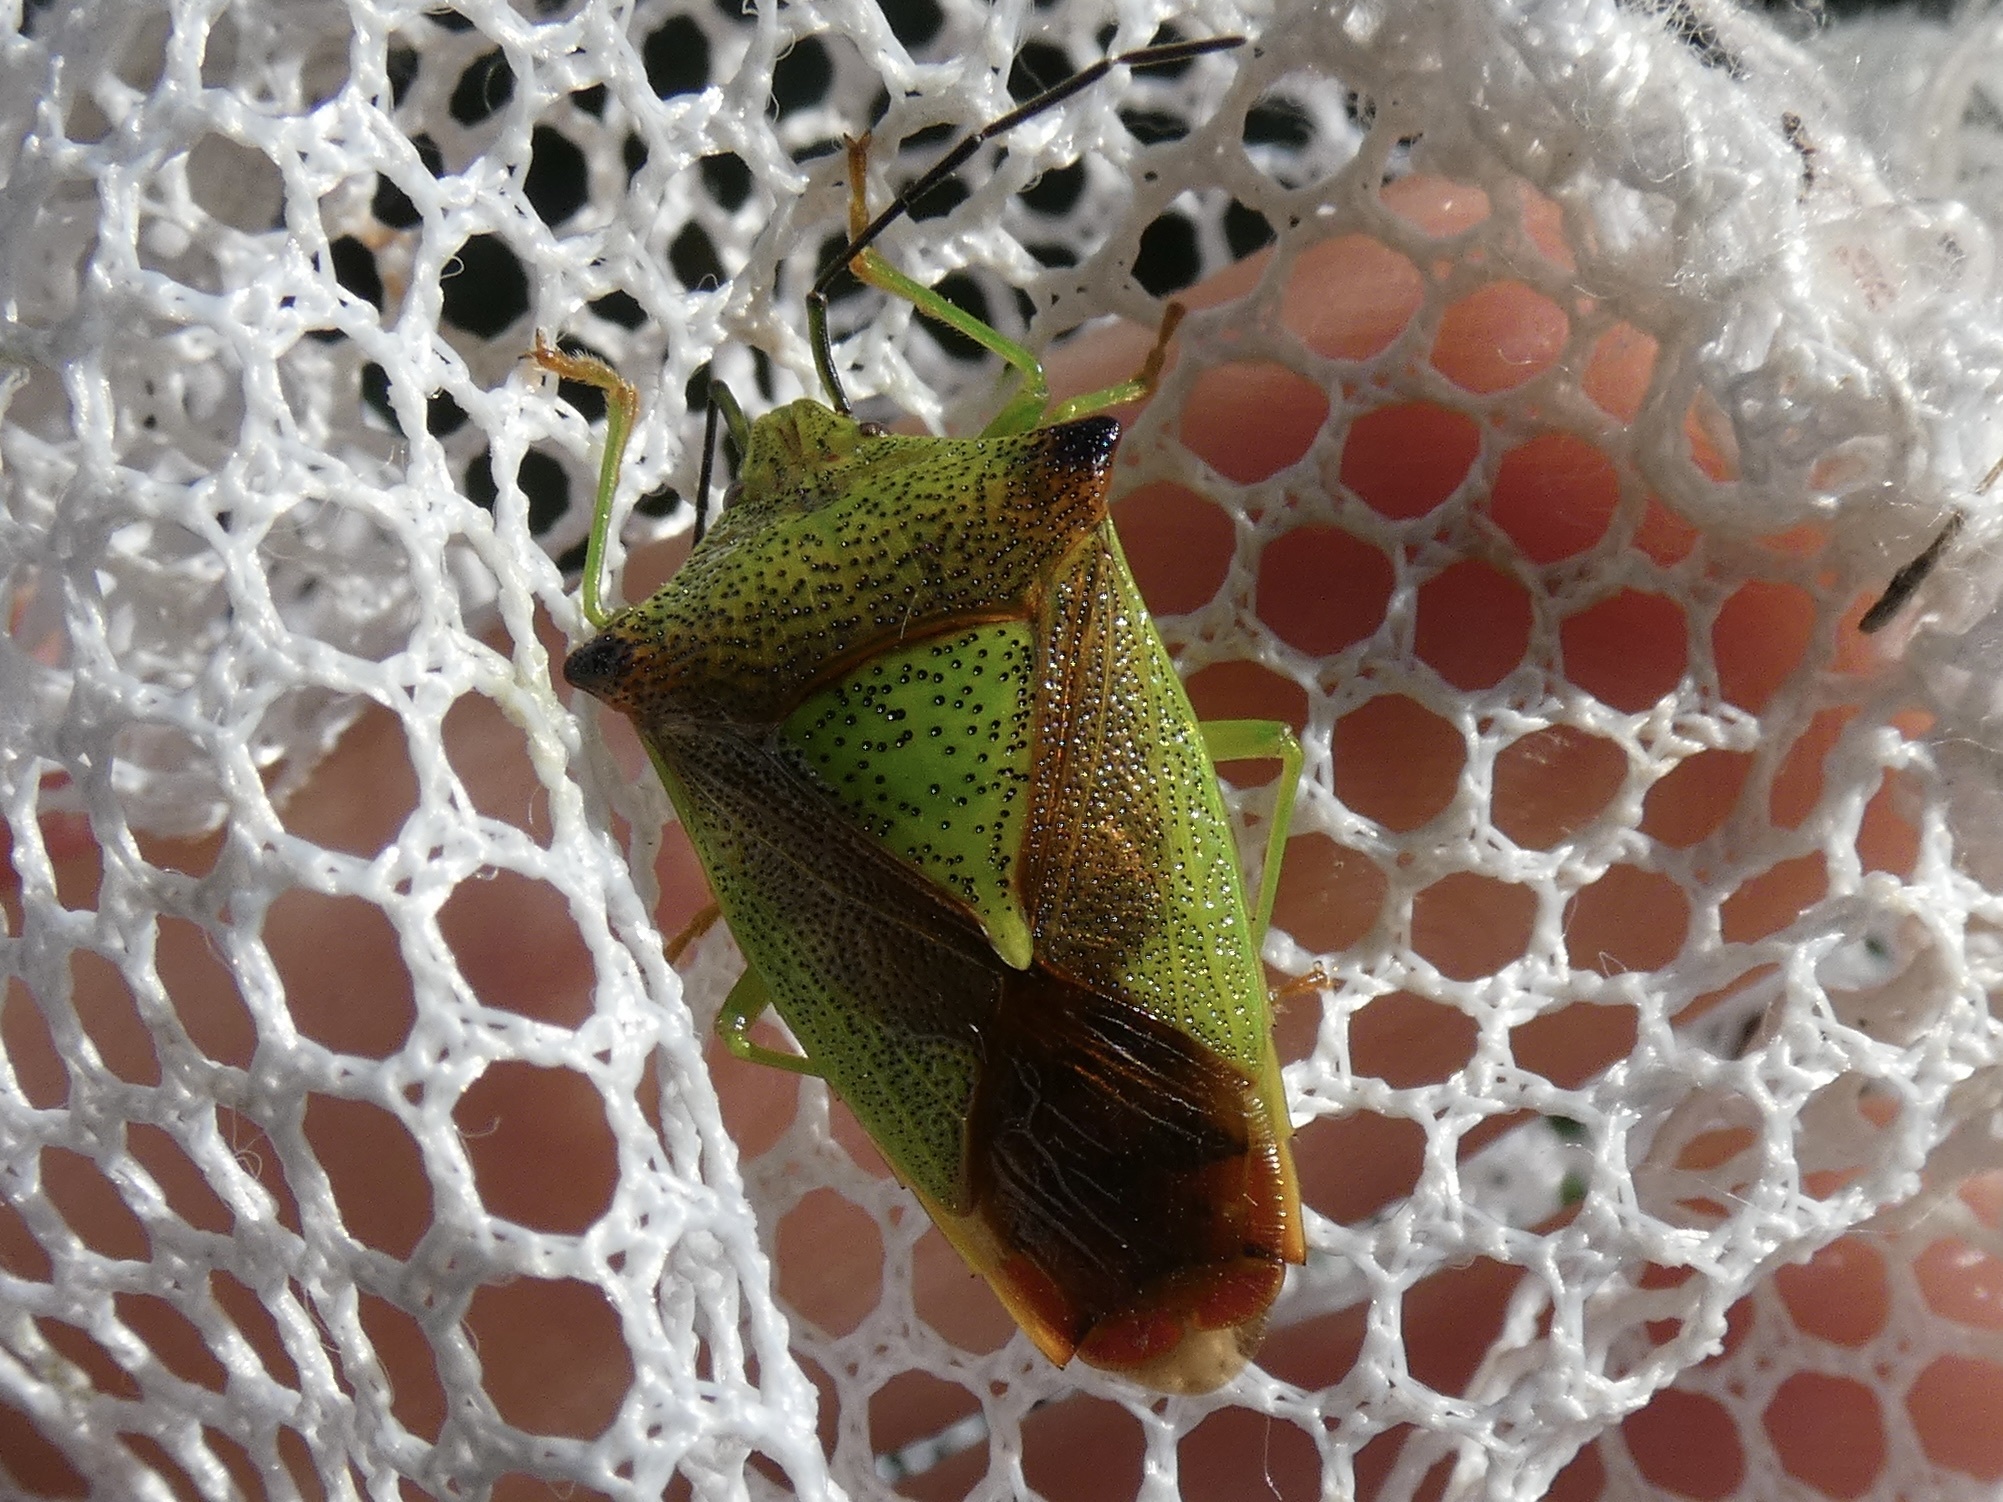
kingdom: Animalia
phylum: Arthropoda
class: Insecta
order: Hemiptera
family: Acanthosomatidae
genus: Acanthosoma
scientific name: Acanthosoma haemorrhoidale
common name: Hawthorn shieldbug
